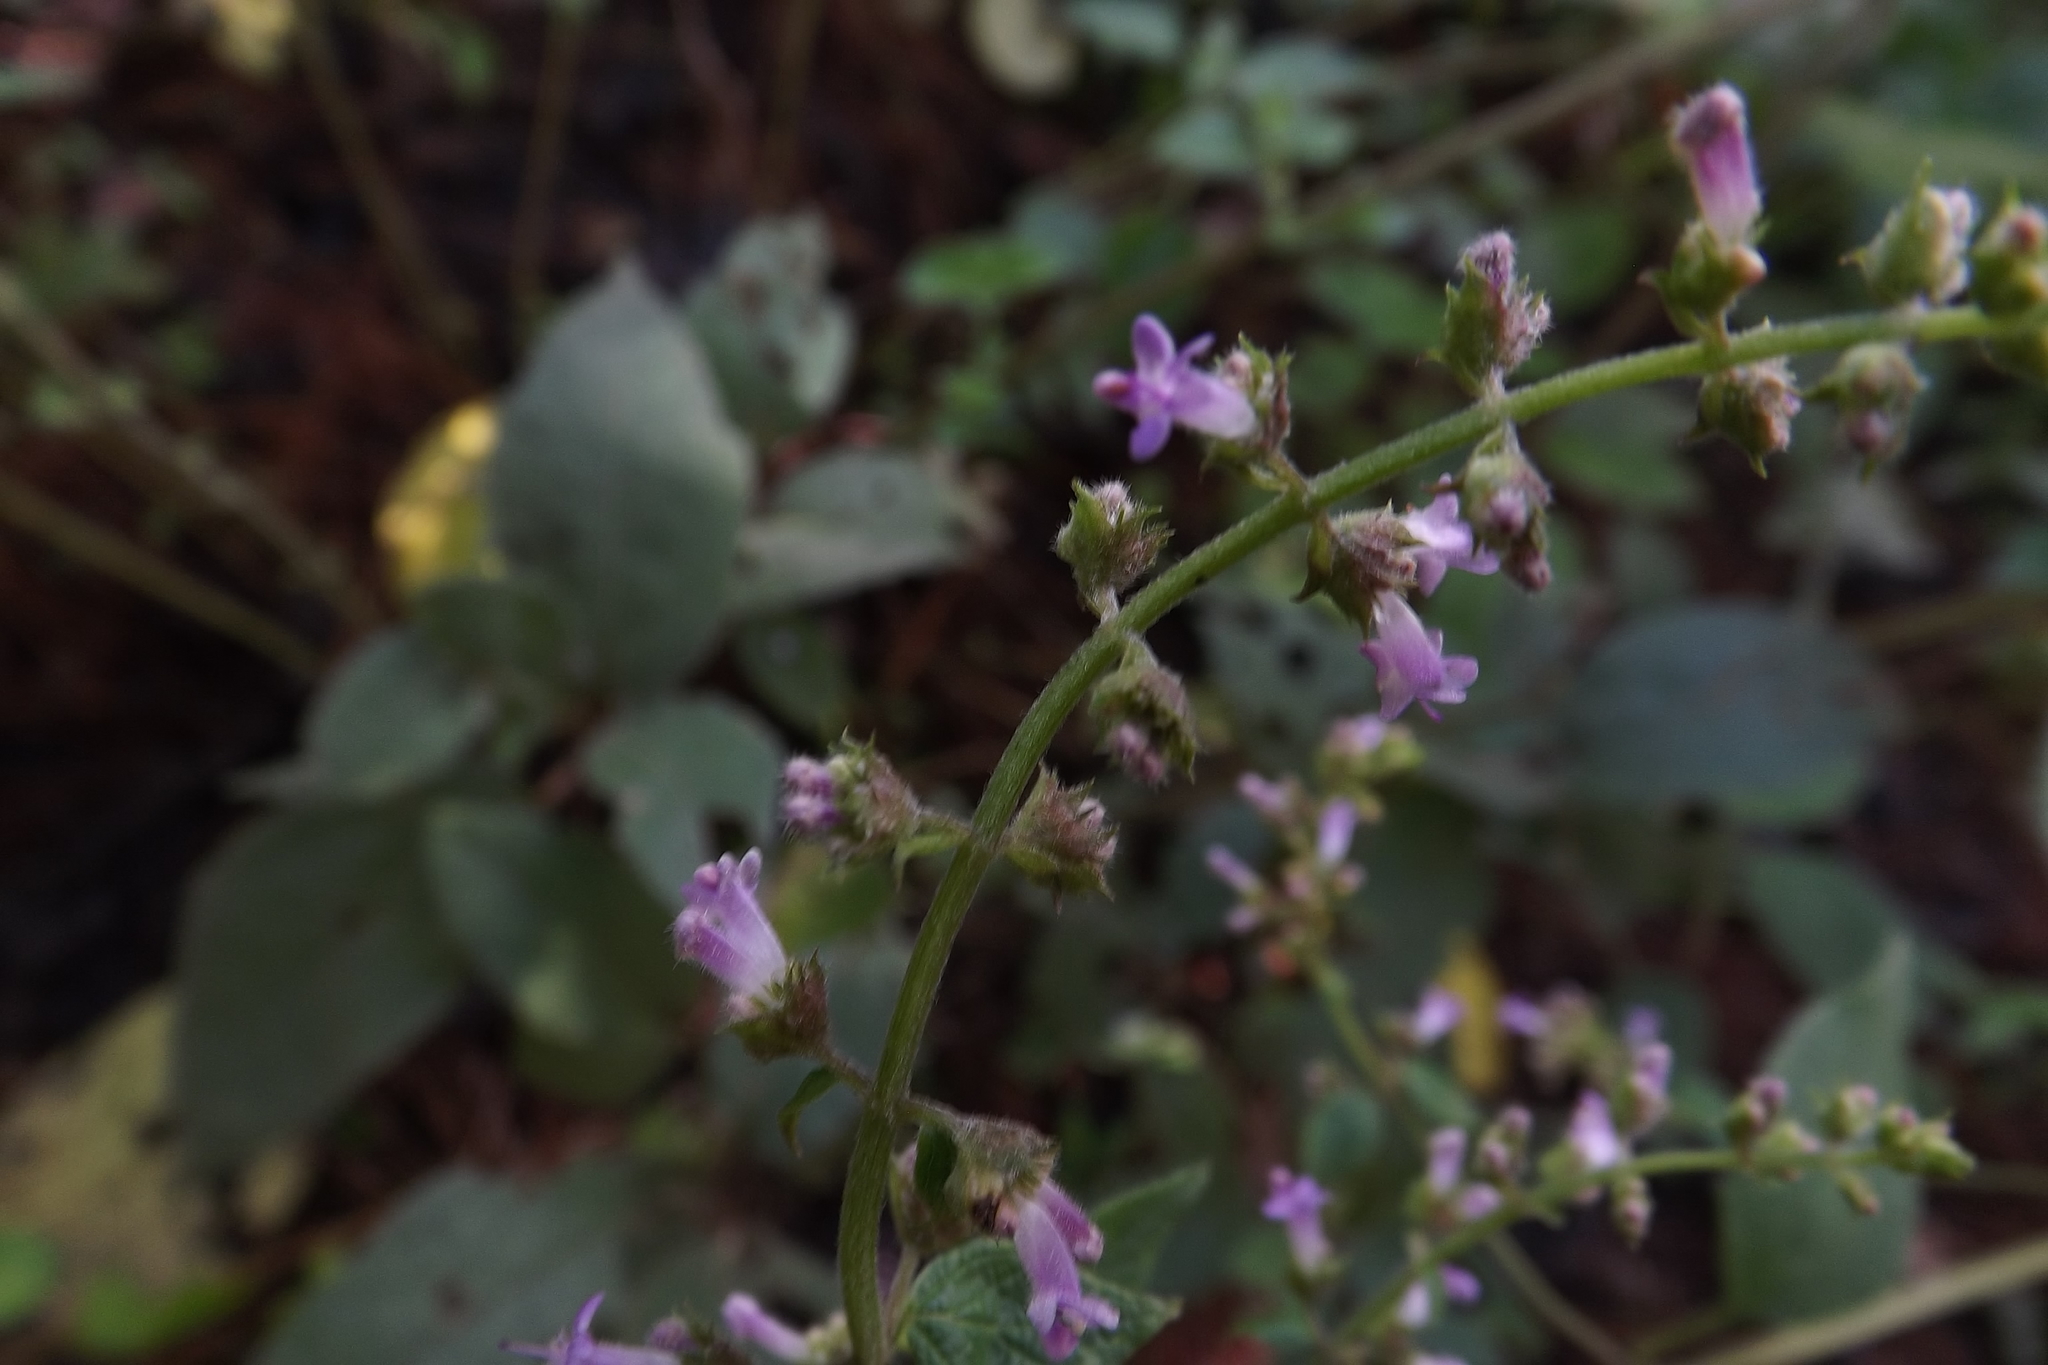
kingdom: Plantae
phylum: Tracheophyta
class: Magnoliopsida
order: Lamiales
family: Lamiaceae
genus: Cantinoa
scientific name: Cantinoa mutabilis
